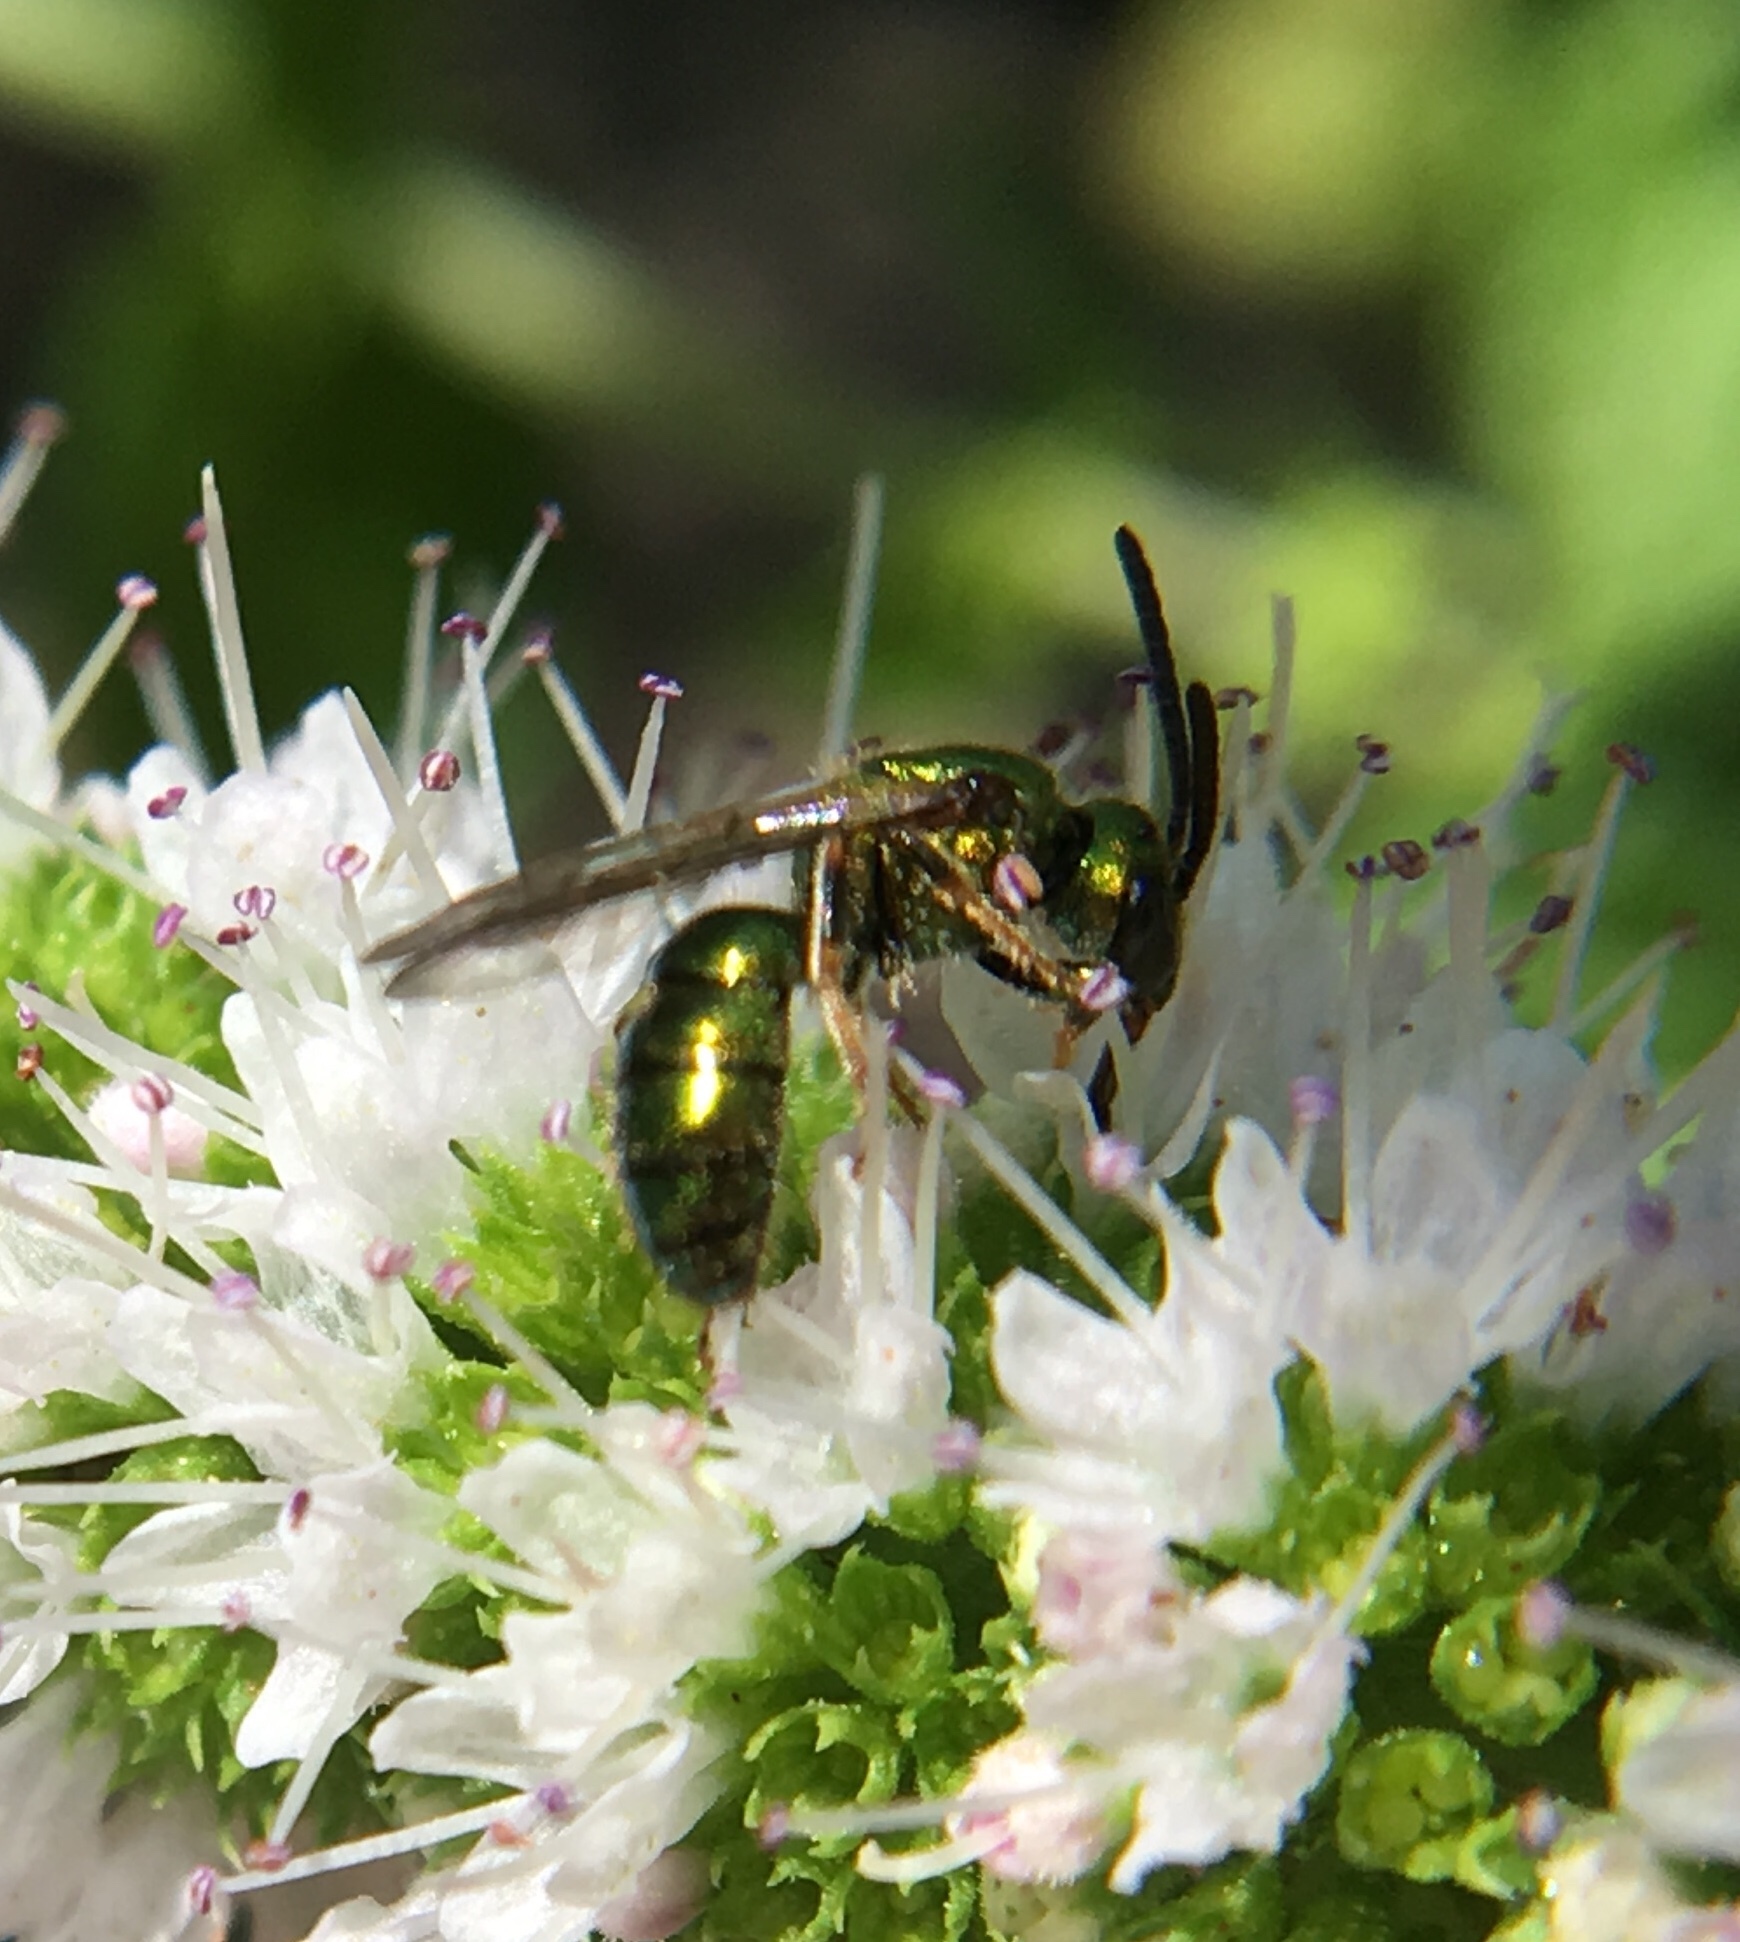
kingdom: Animalia
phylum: Arthropoda
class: Insecta
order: Hymenoptera
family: Halictidae
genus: Augochlora
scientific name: Augochlora pura
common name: Pure green sweat bee
